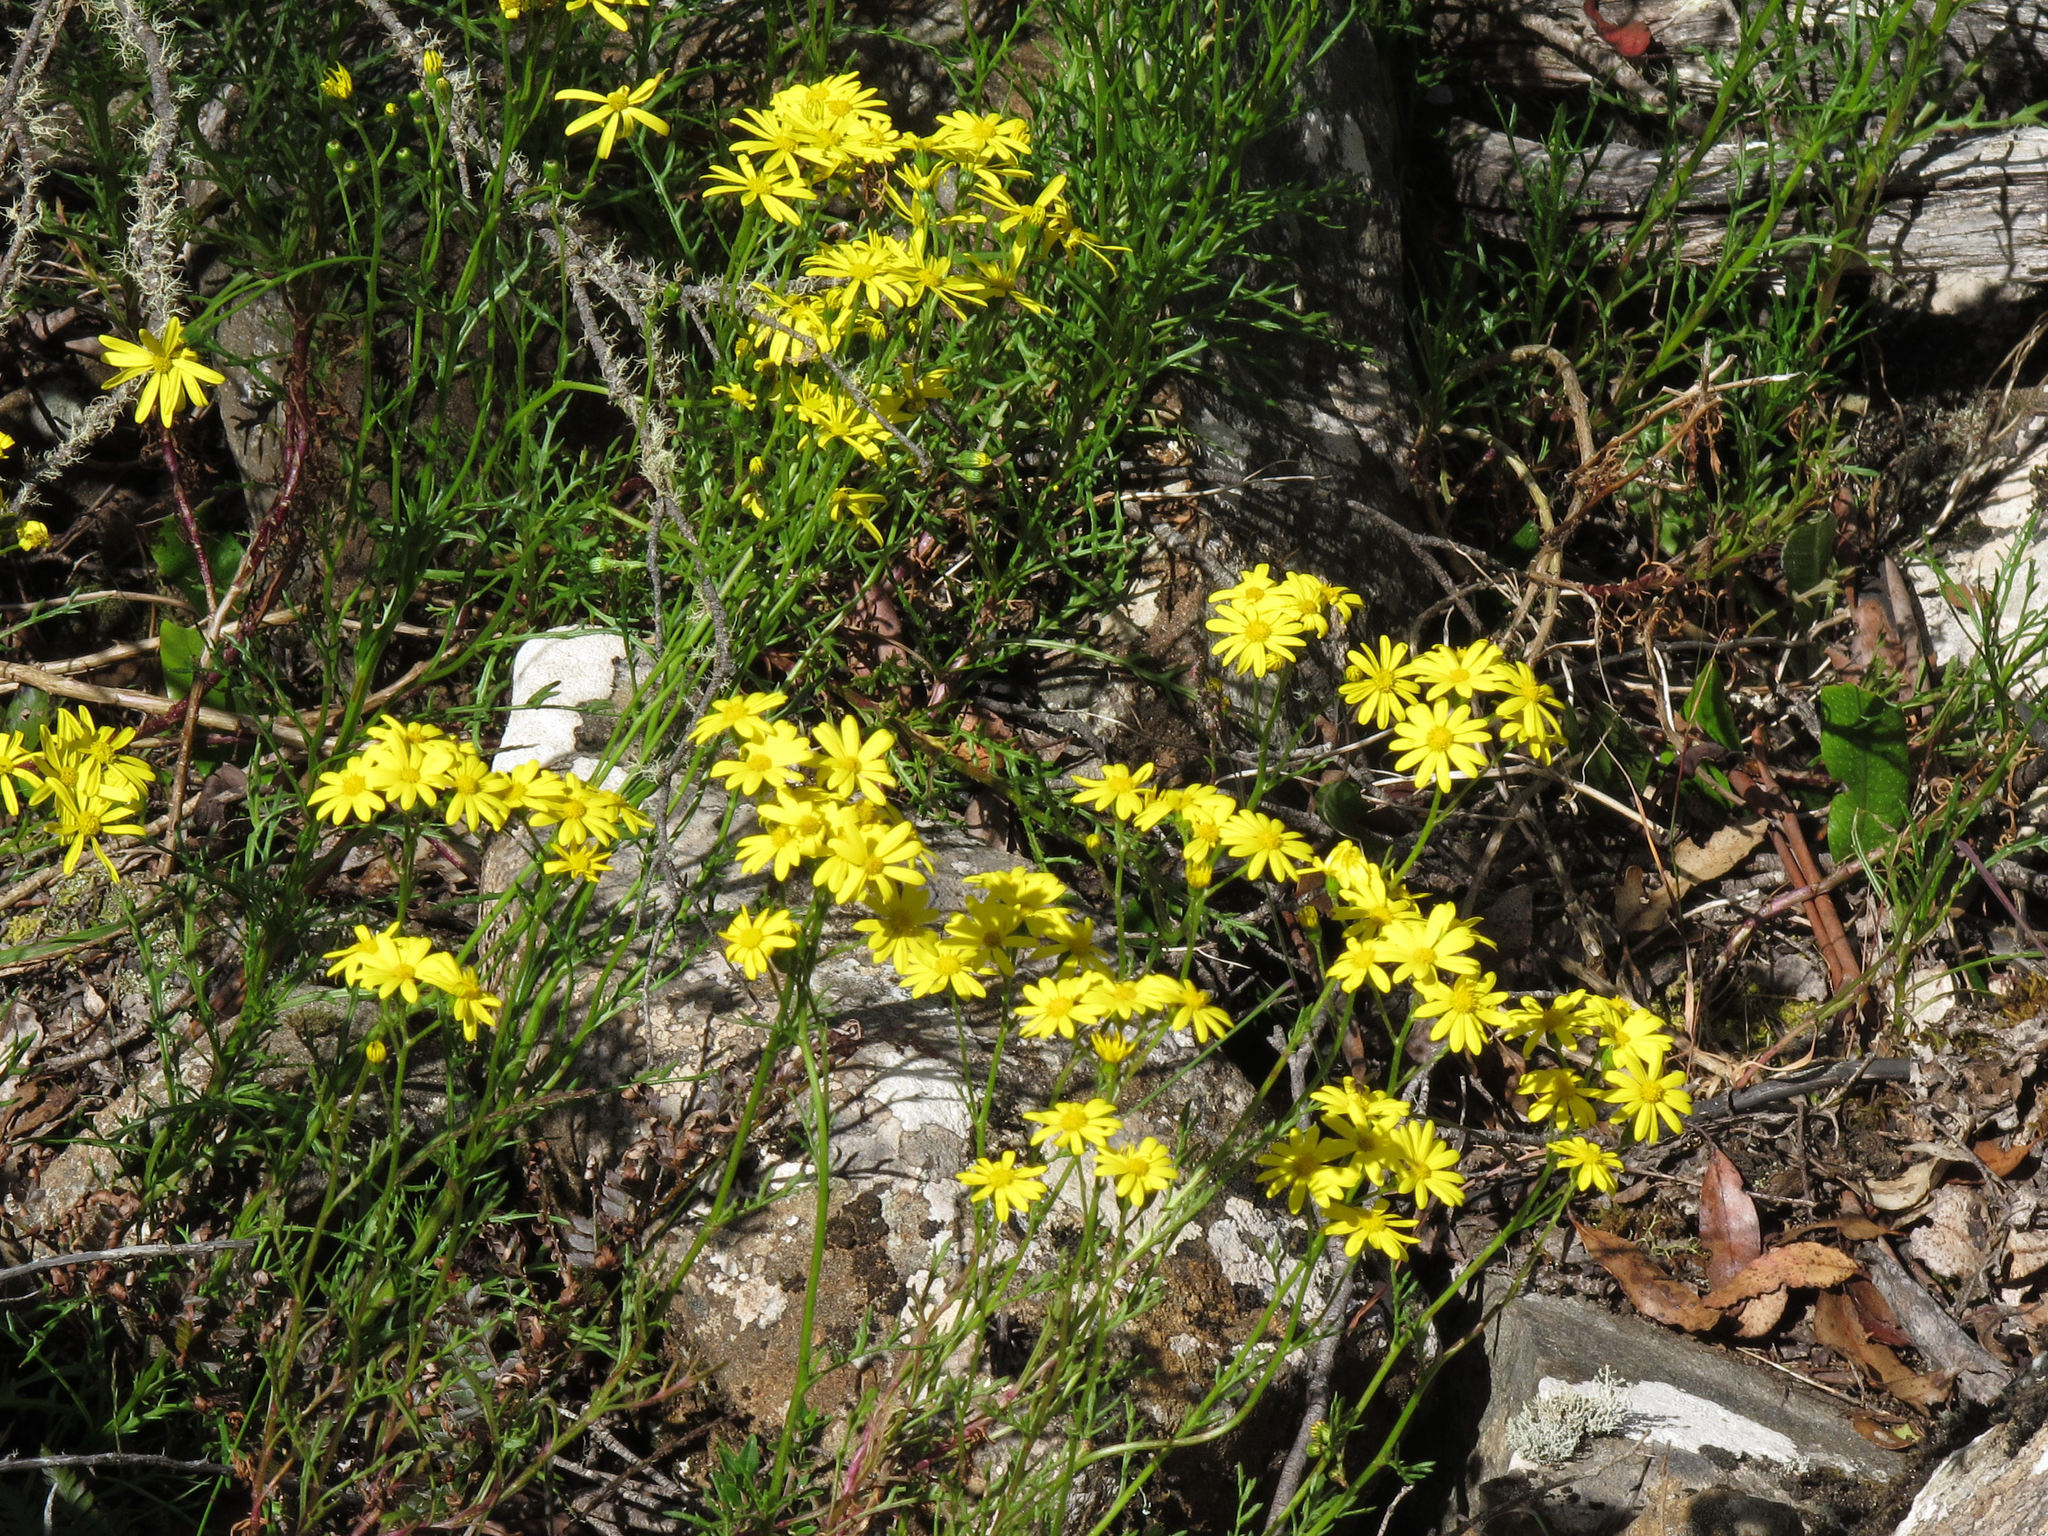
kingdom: Plantae
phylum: Tracheophyta
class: Magnoliopsida
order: Asterales
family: Asteraceae
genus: Senecio
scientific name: Senecio pinnatifolius
